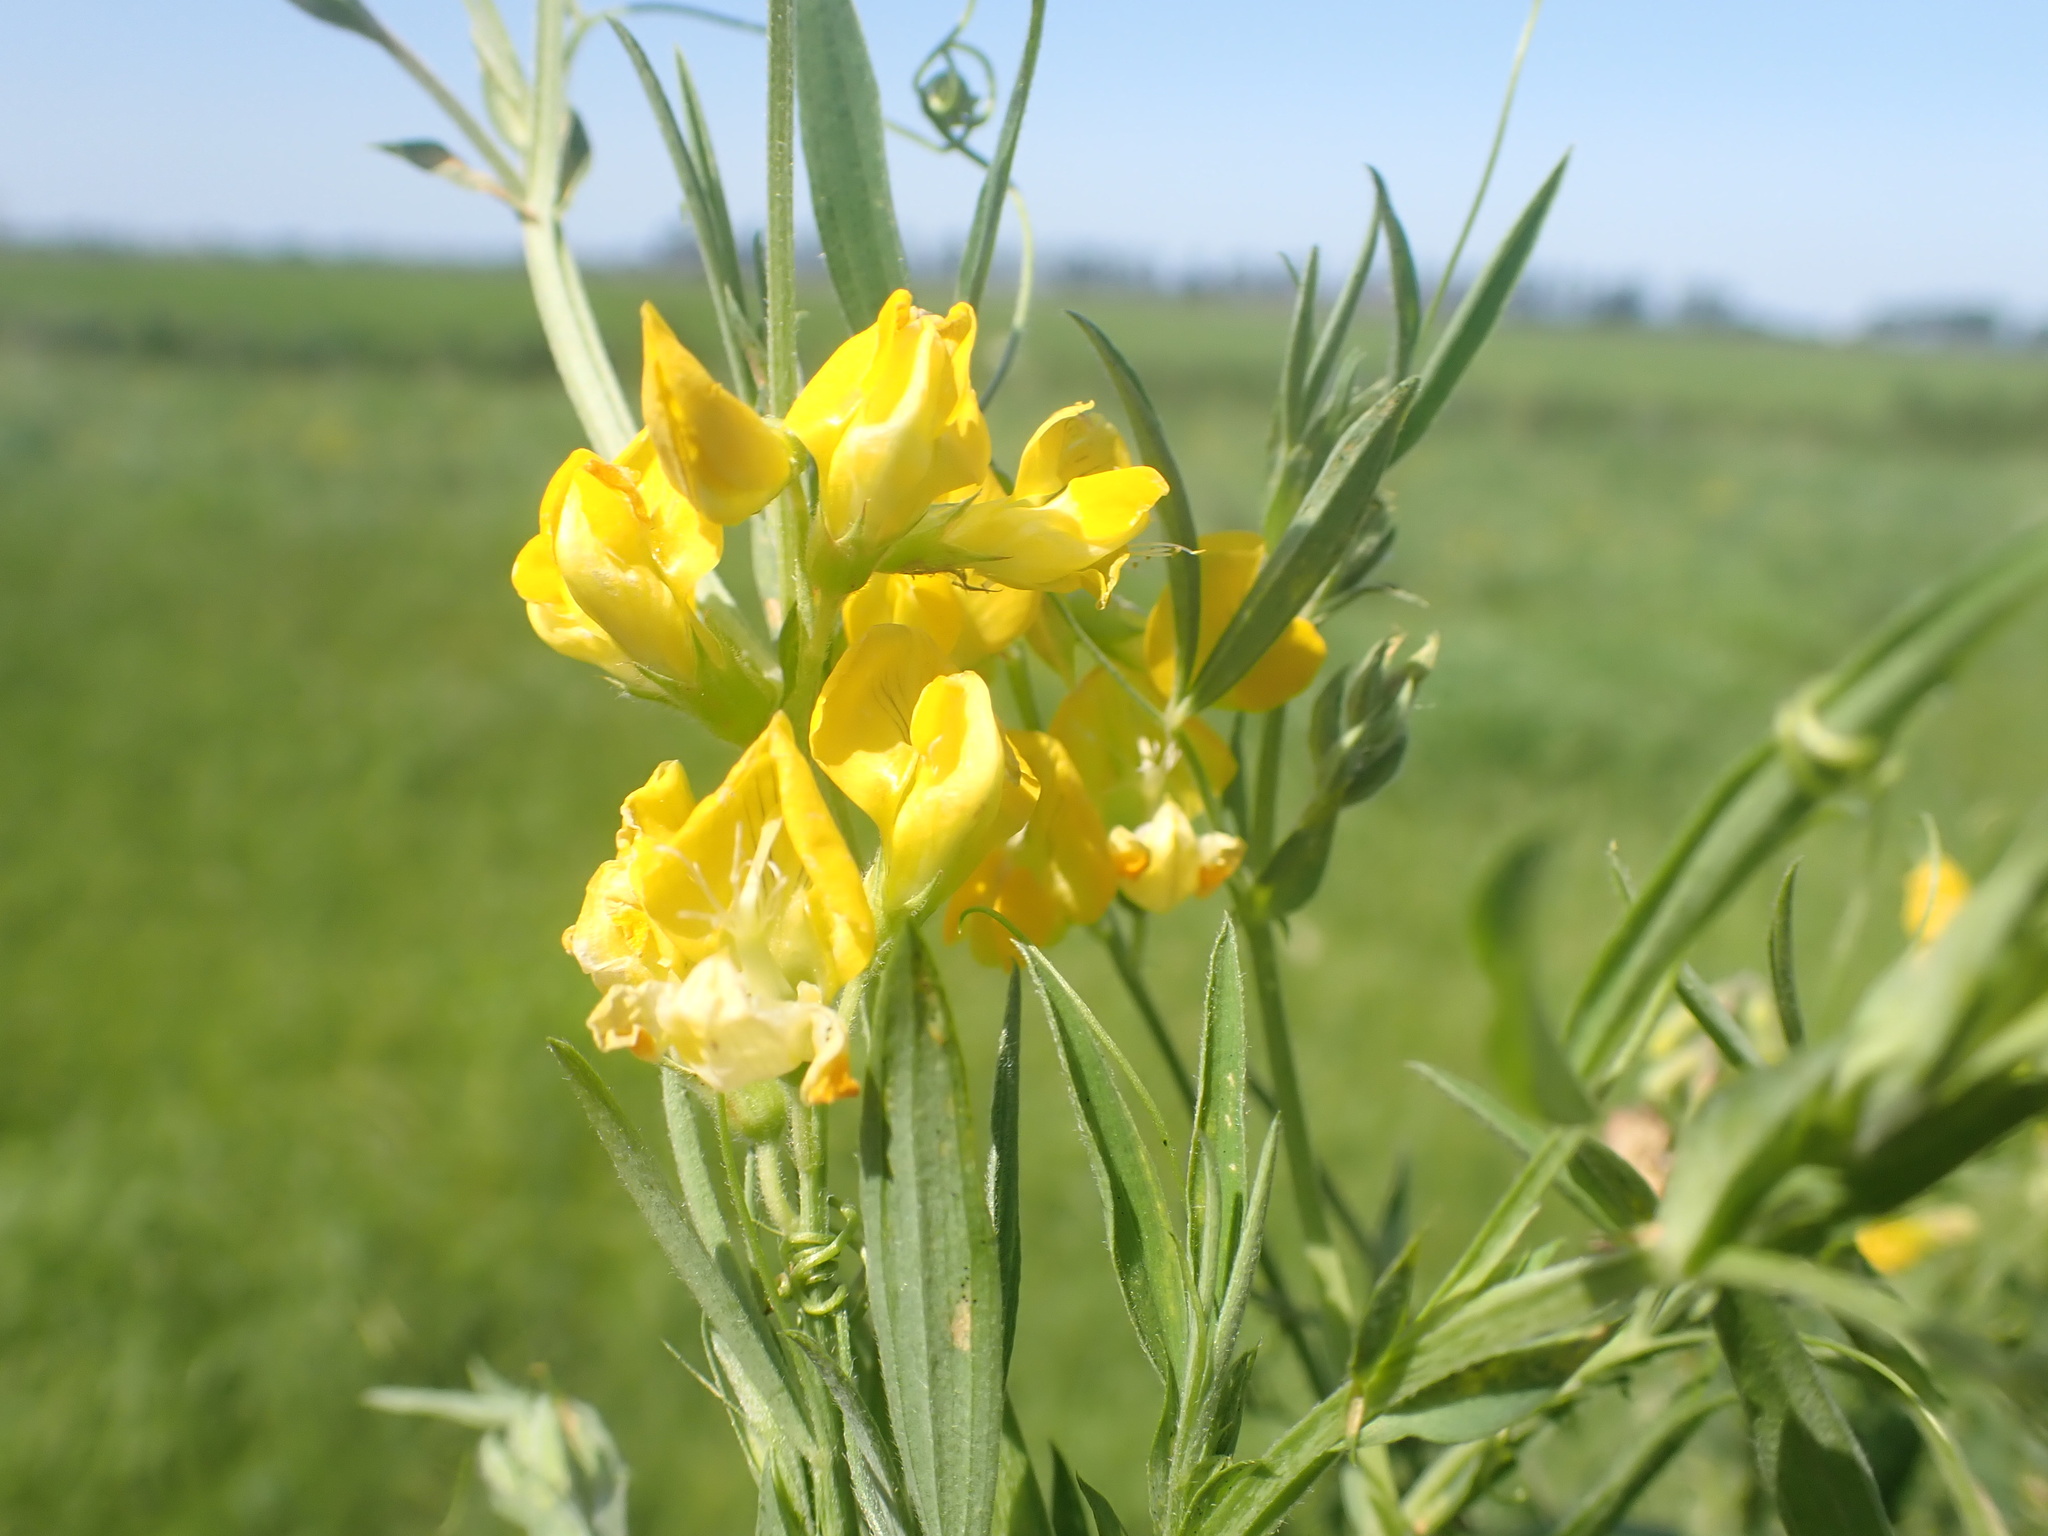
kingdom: Plantae
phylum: Tracheophyta
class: Magnoliopsida
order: Fabales
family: Fabaceae
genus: Lathyrus
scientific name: Lathyrus pratensis
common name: Meadow vetchling
